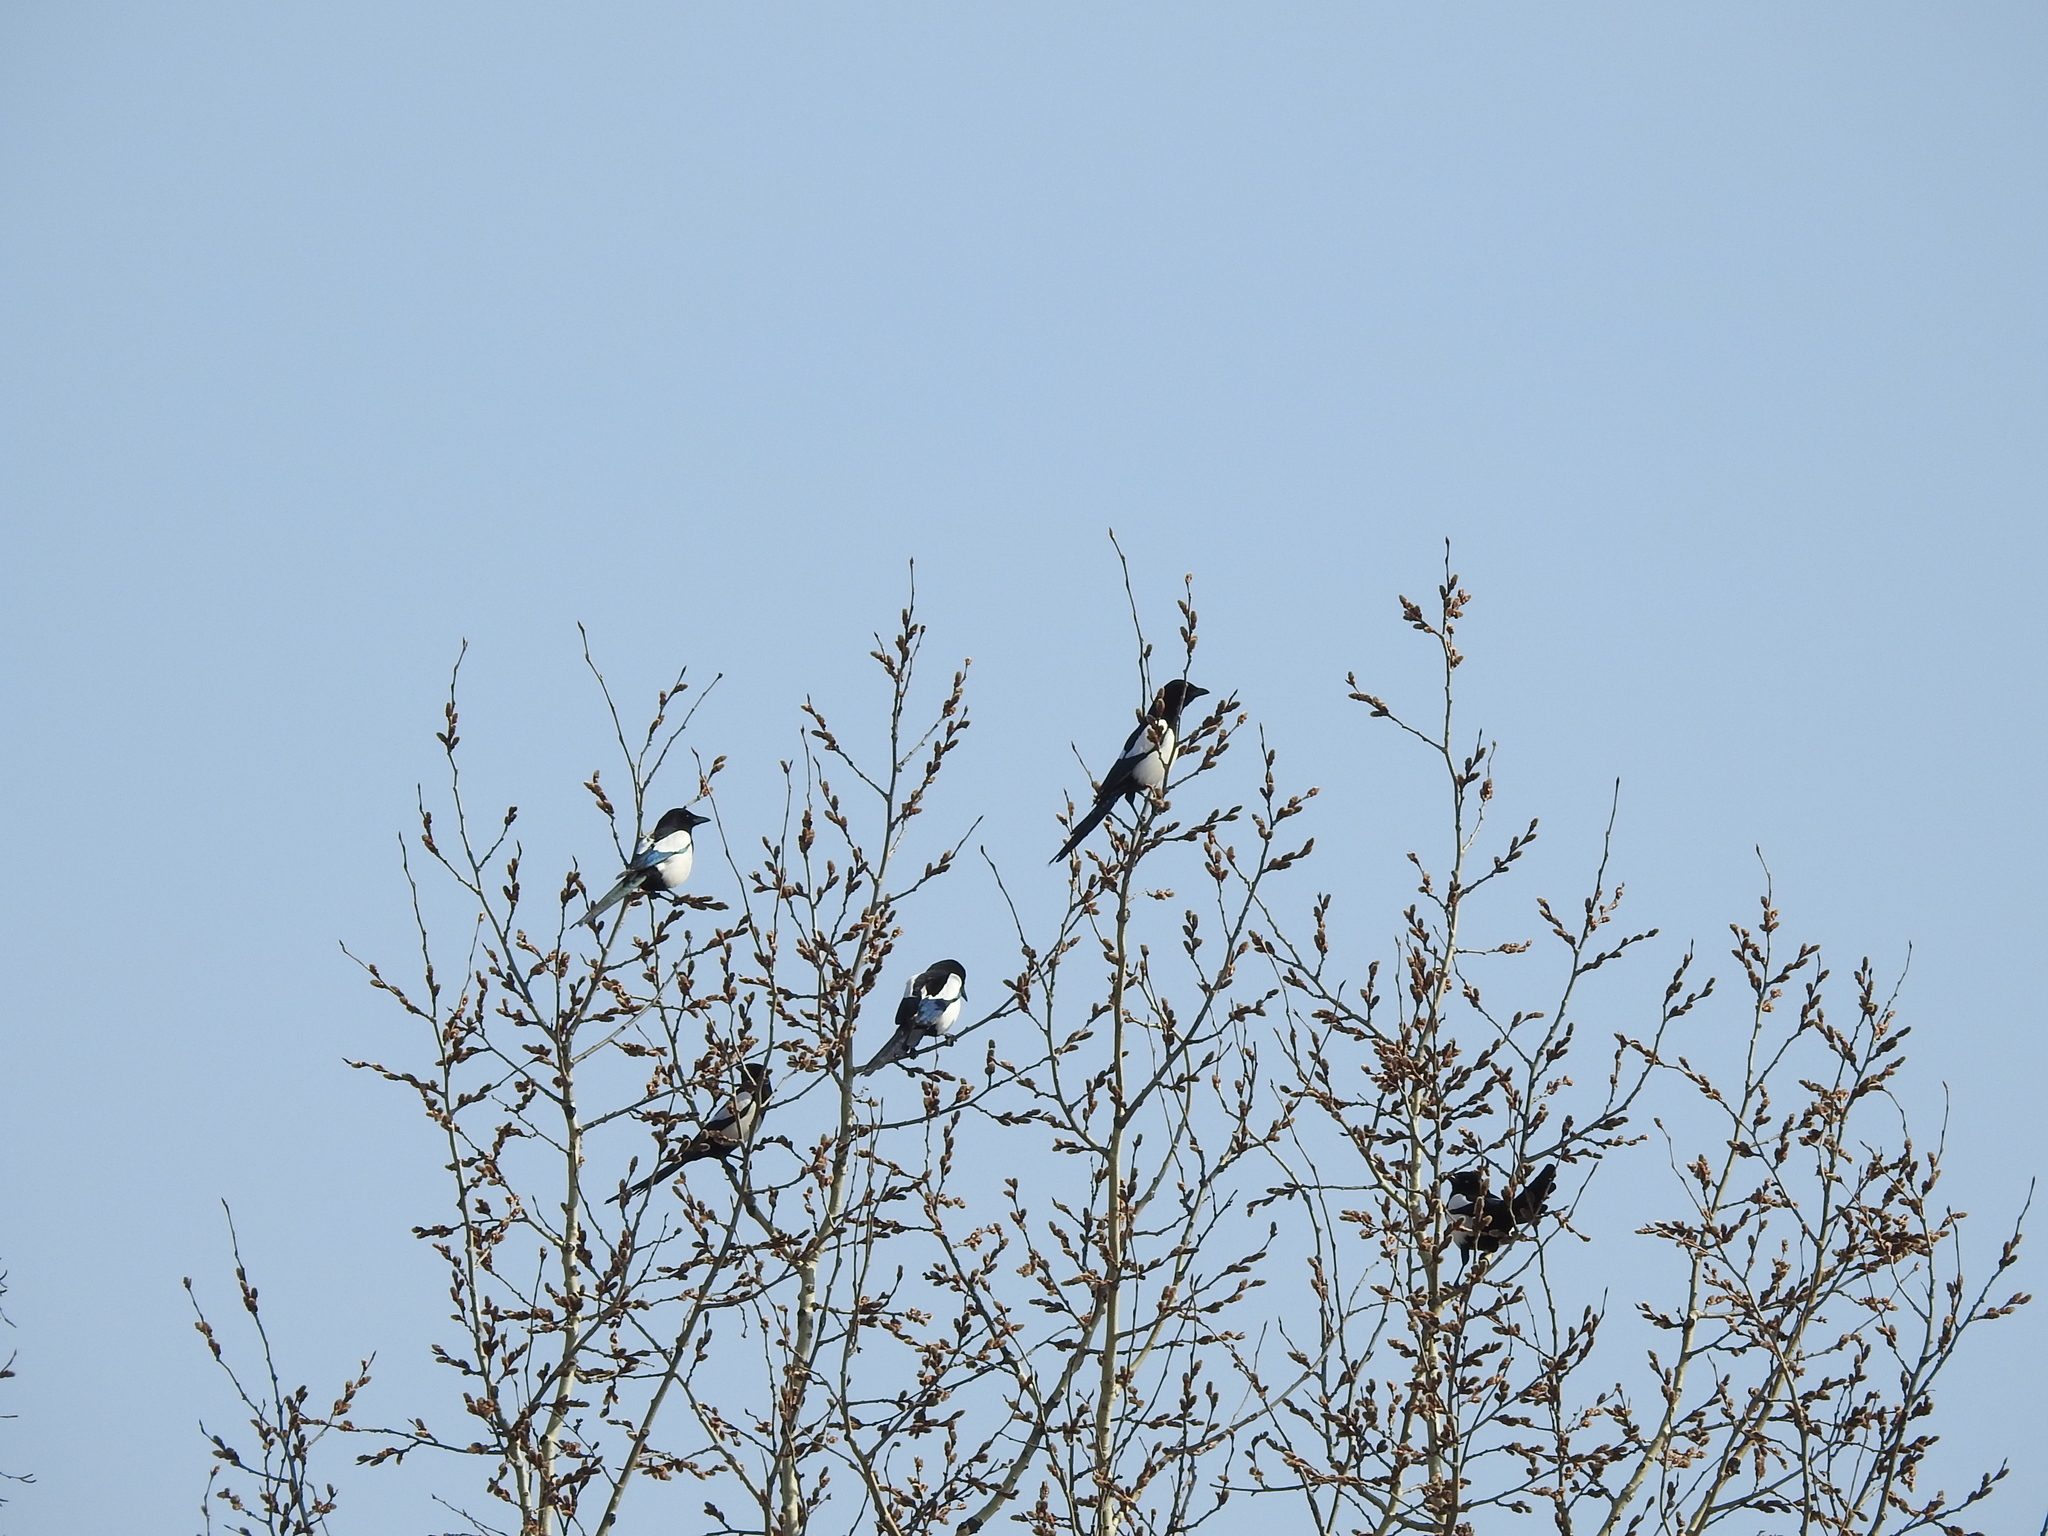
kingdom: Animalia
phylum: Chordata
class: Aves
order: Passeriformes
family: Corvidae
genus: Pica
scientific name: Pica pica
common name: Eurasian magpie
